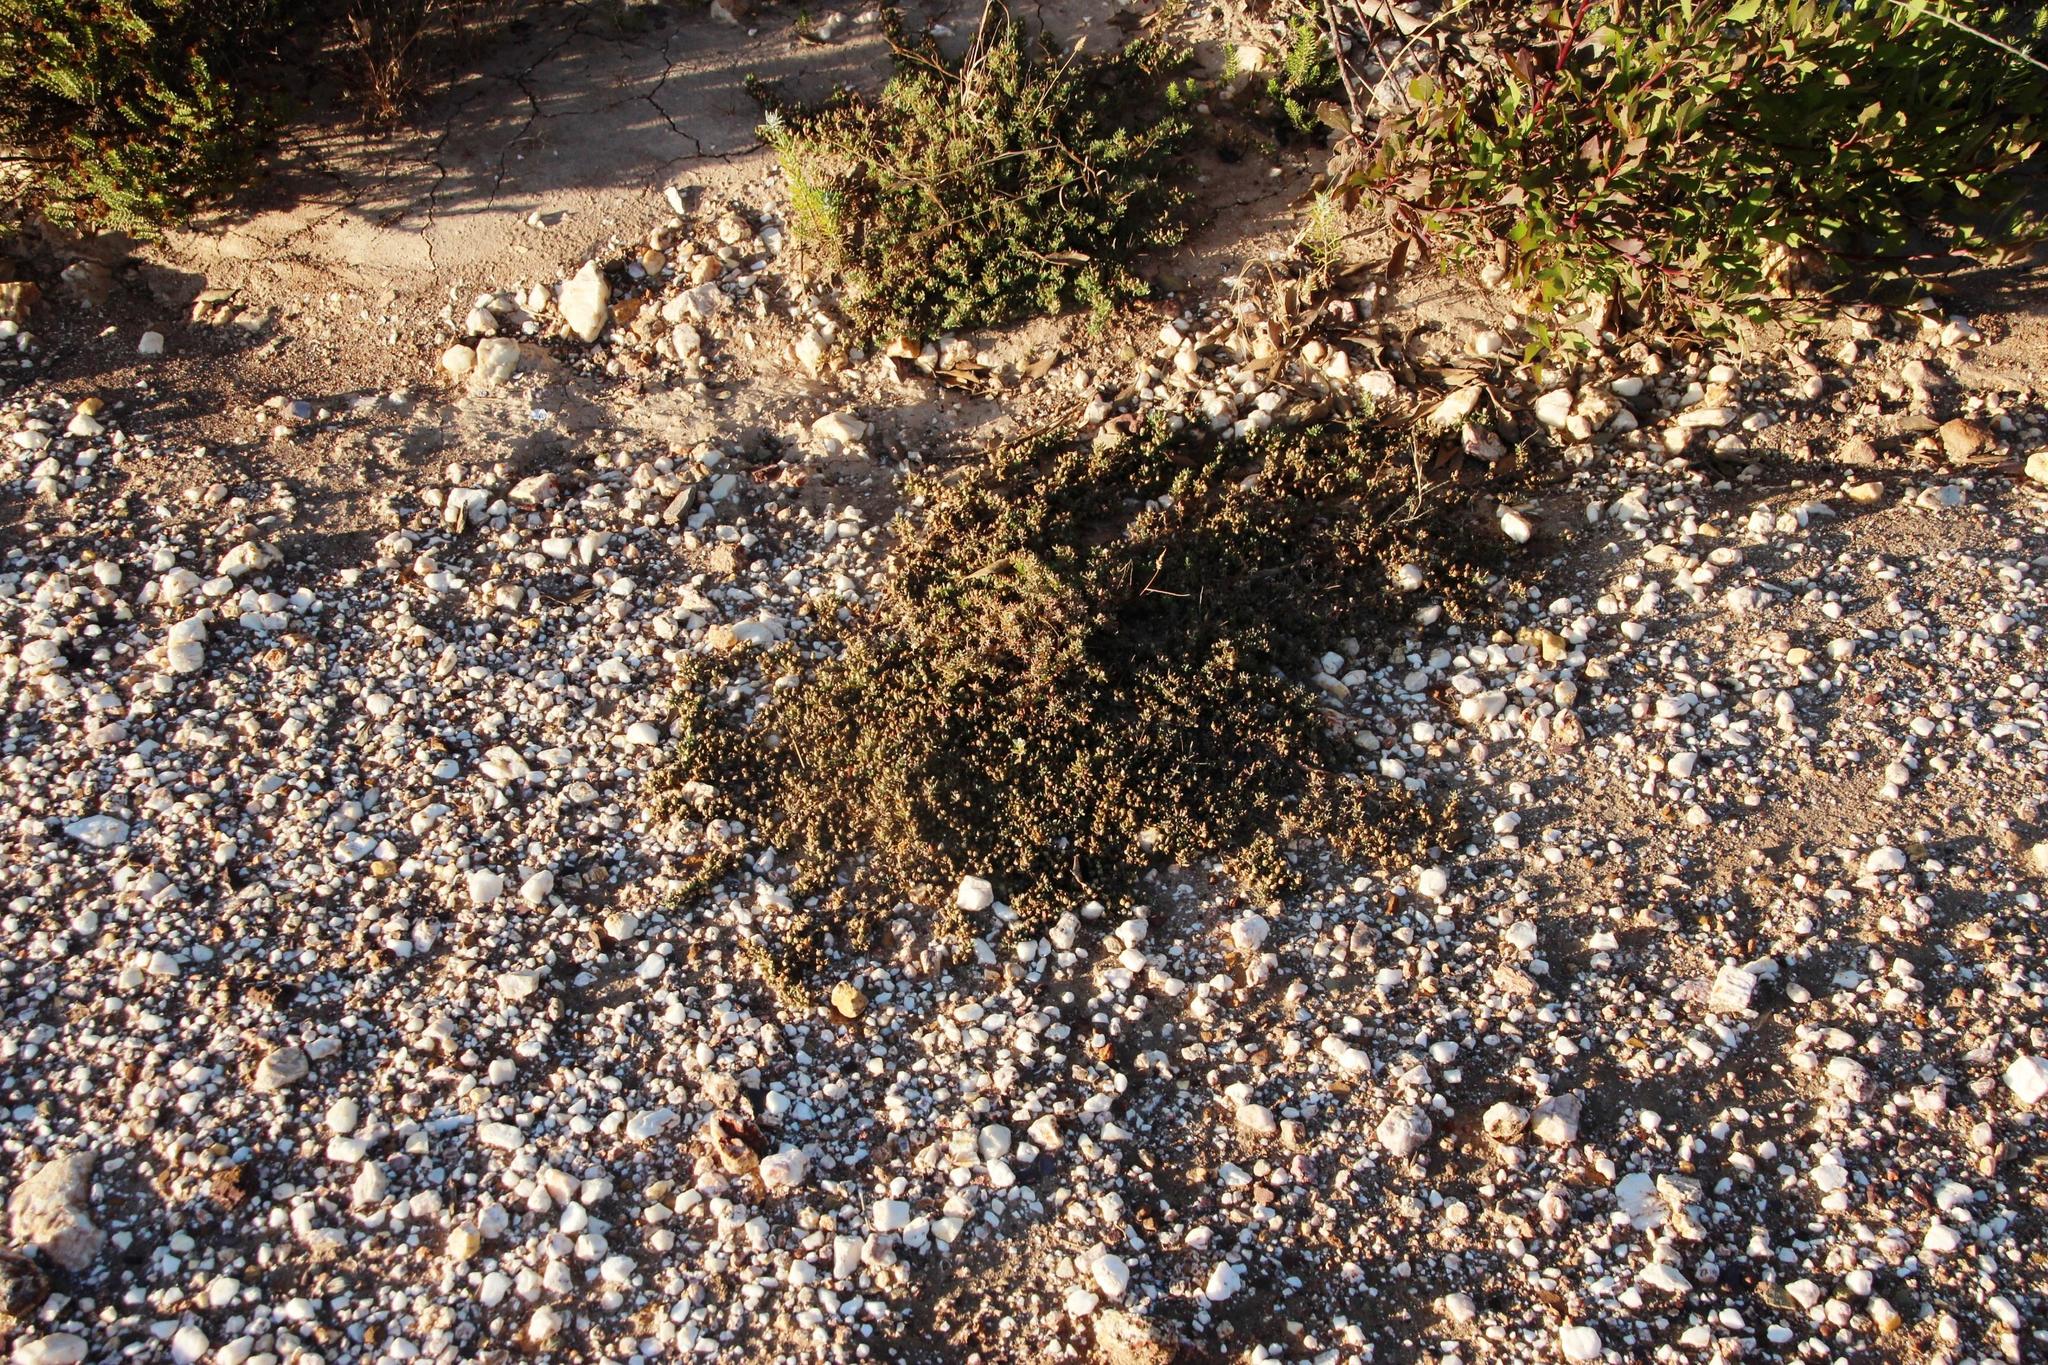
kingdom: Plantae
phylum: Tracheophyta
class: Magnoliopsida
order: Caryophyllales
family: Aizoaceae
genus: Mesembryanthemum
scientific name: Mesembryanthemum parviflorum
